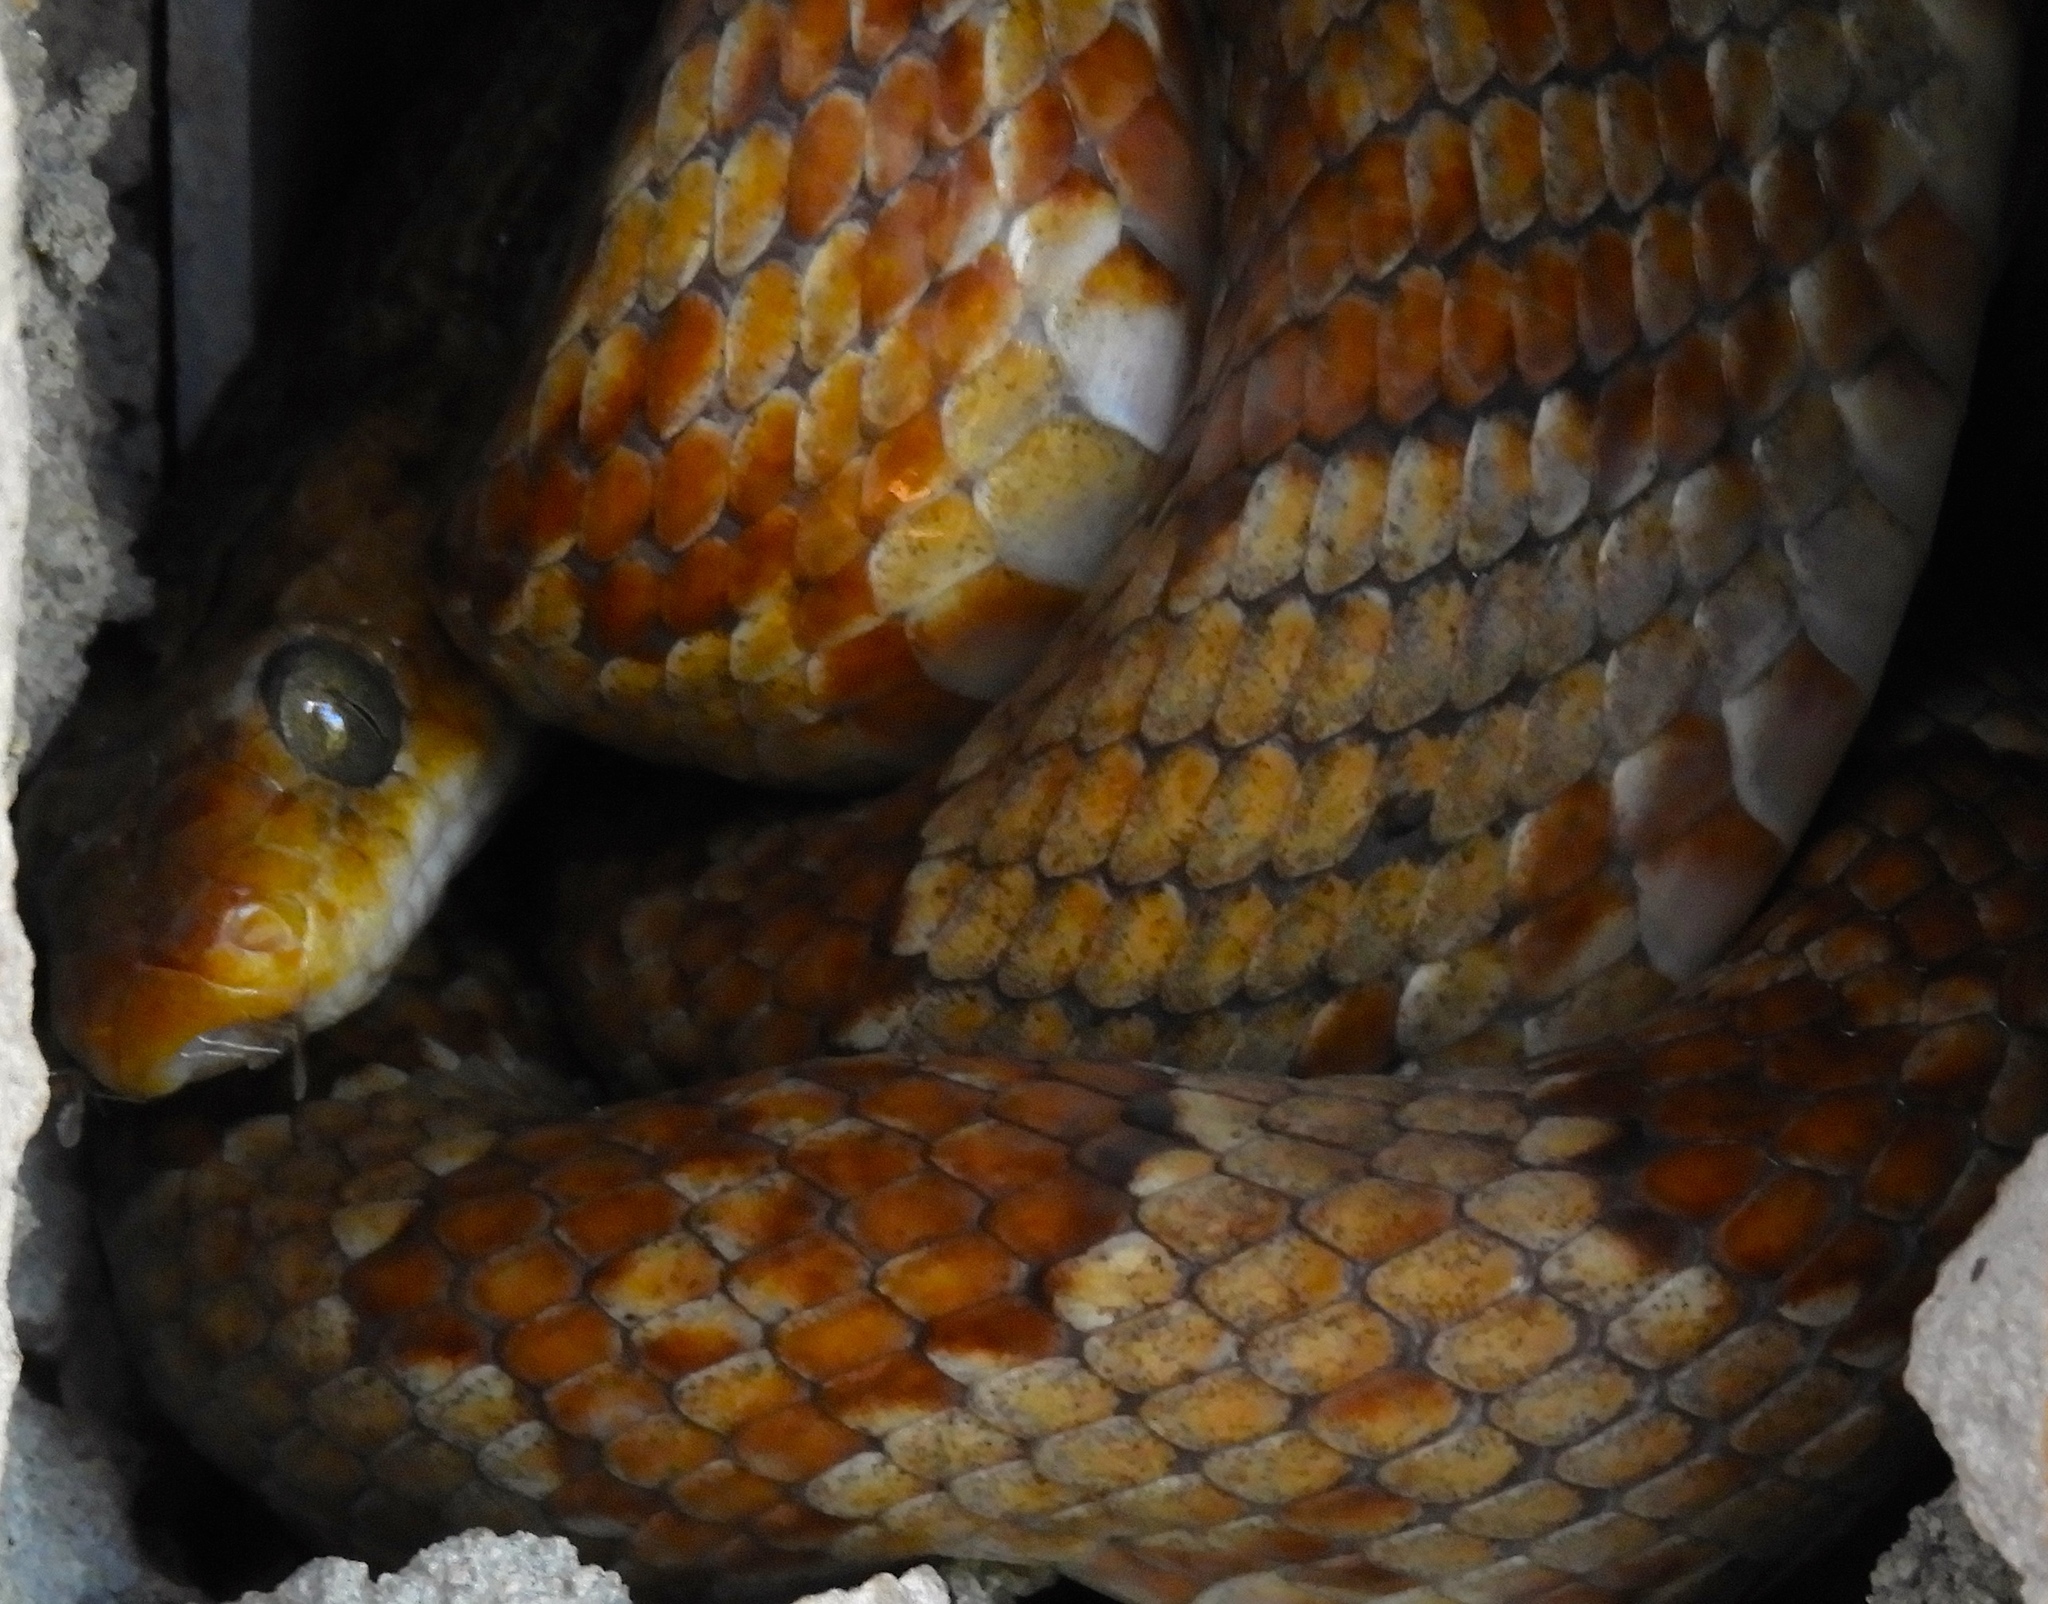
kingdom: Animalia
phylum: Chordata
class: Squamata
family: Colubridae
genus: Trimorphodon
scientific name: Trimorphodon paucimaculatus
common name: Sinaloan lyresnake
